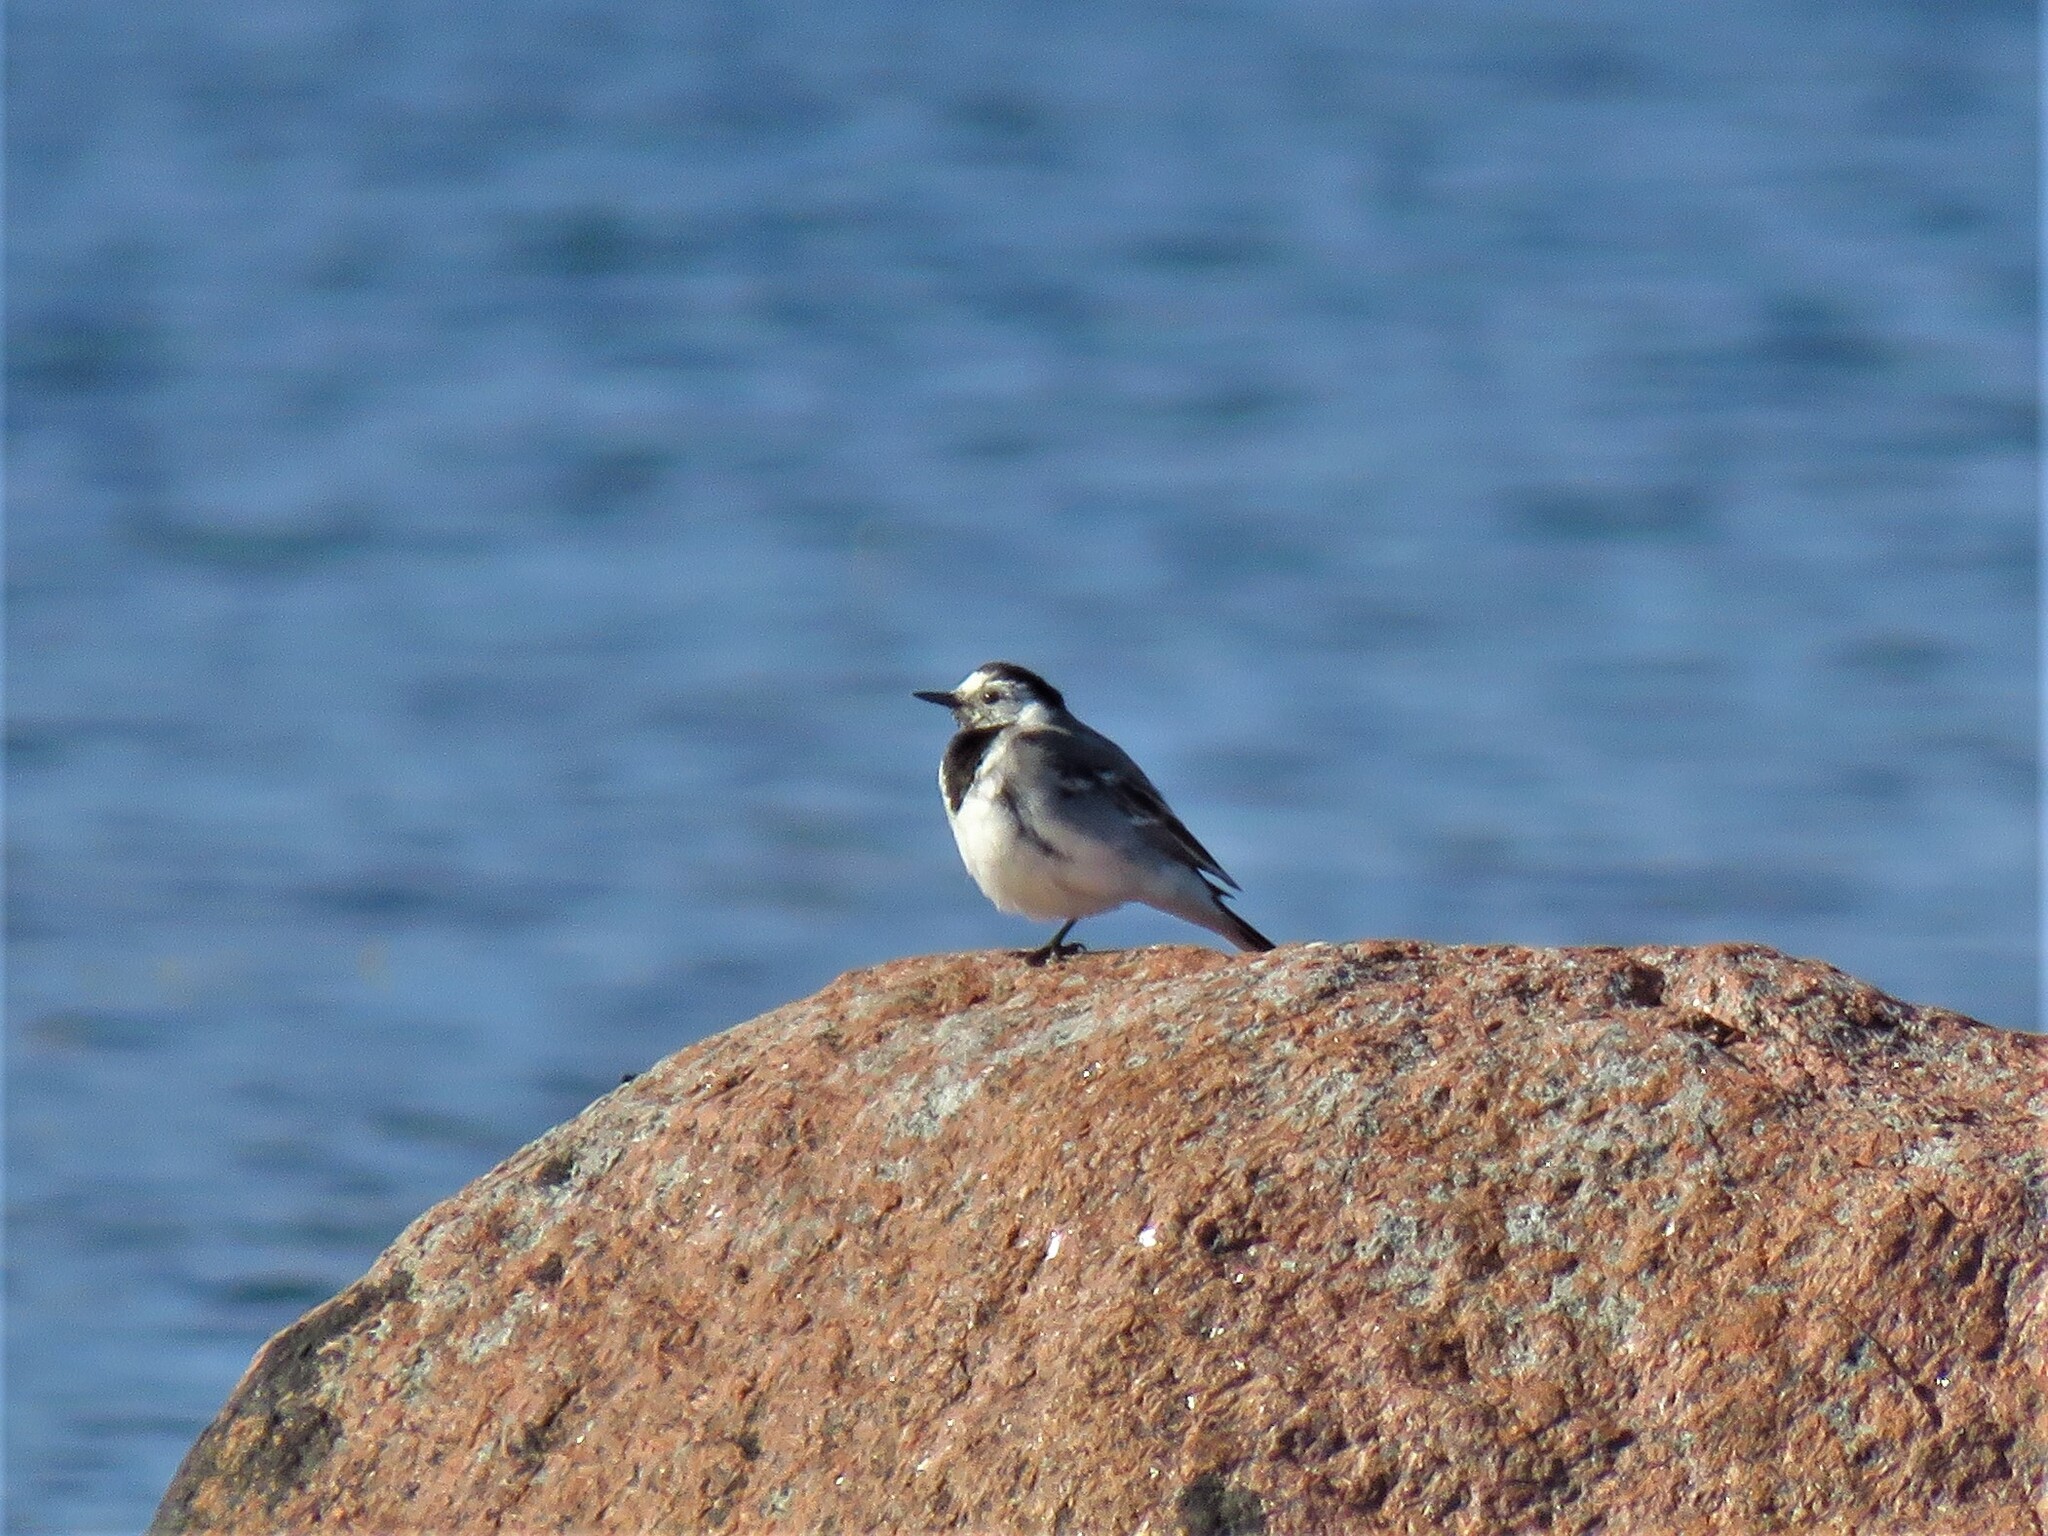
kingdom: Animalia
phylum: Chordata
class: Aves
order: Passeriformes
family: Motacillidae
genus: Motacilla
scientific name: Motacilla alba
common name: White wagtail
